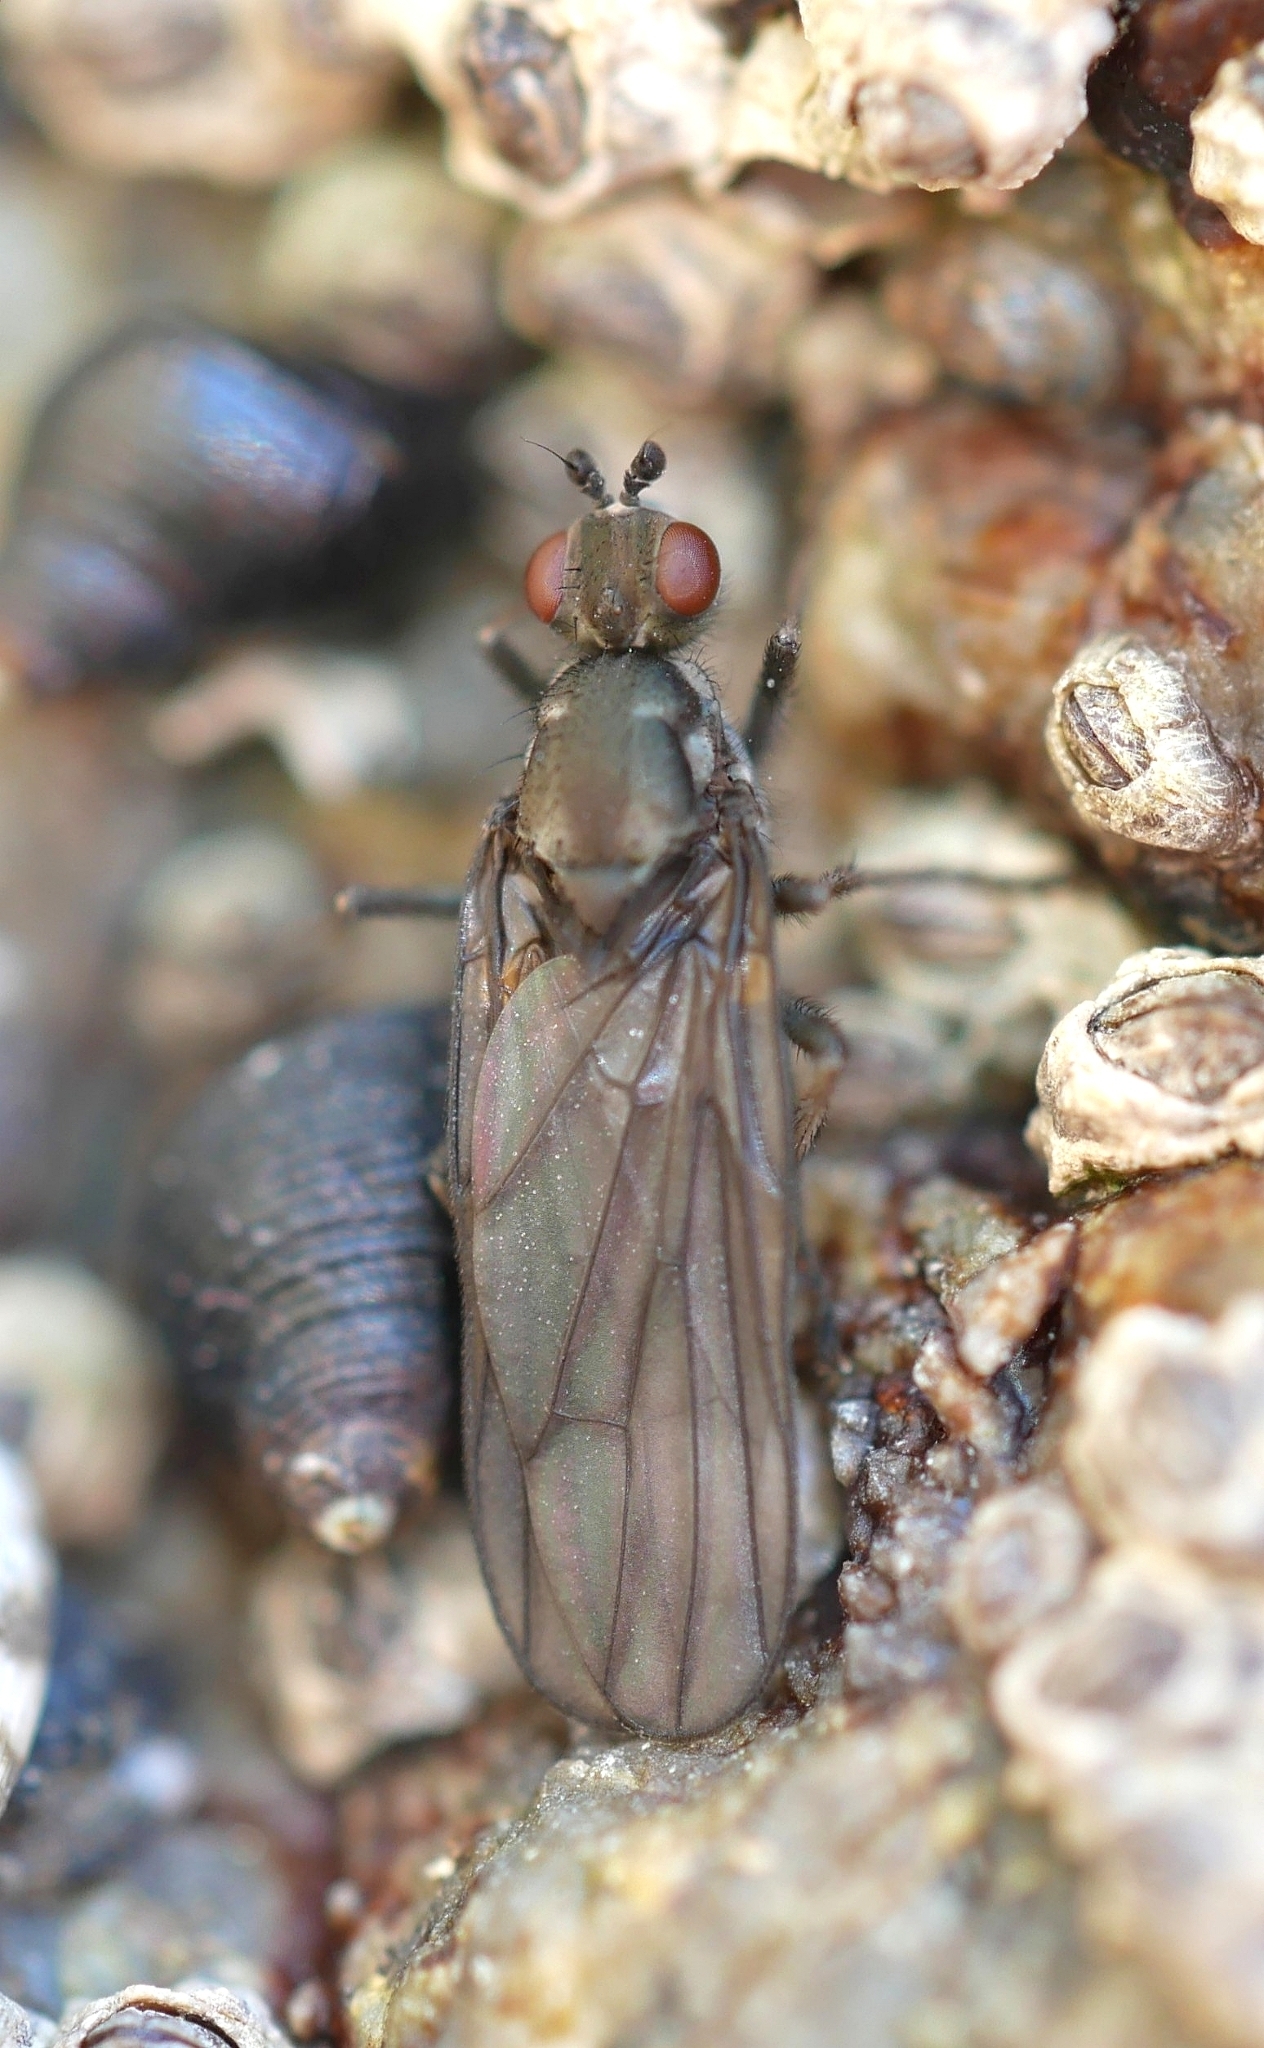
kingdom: Animalia
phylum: Arthropoda
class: Insecta
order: Diptera
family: Dryomyzidae
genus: Oedoparena
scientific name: Oedoparena glauca
